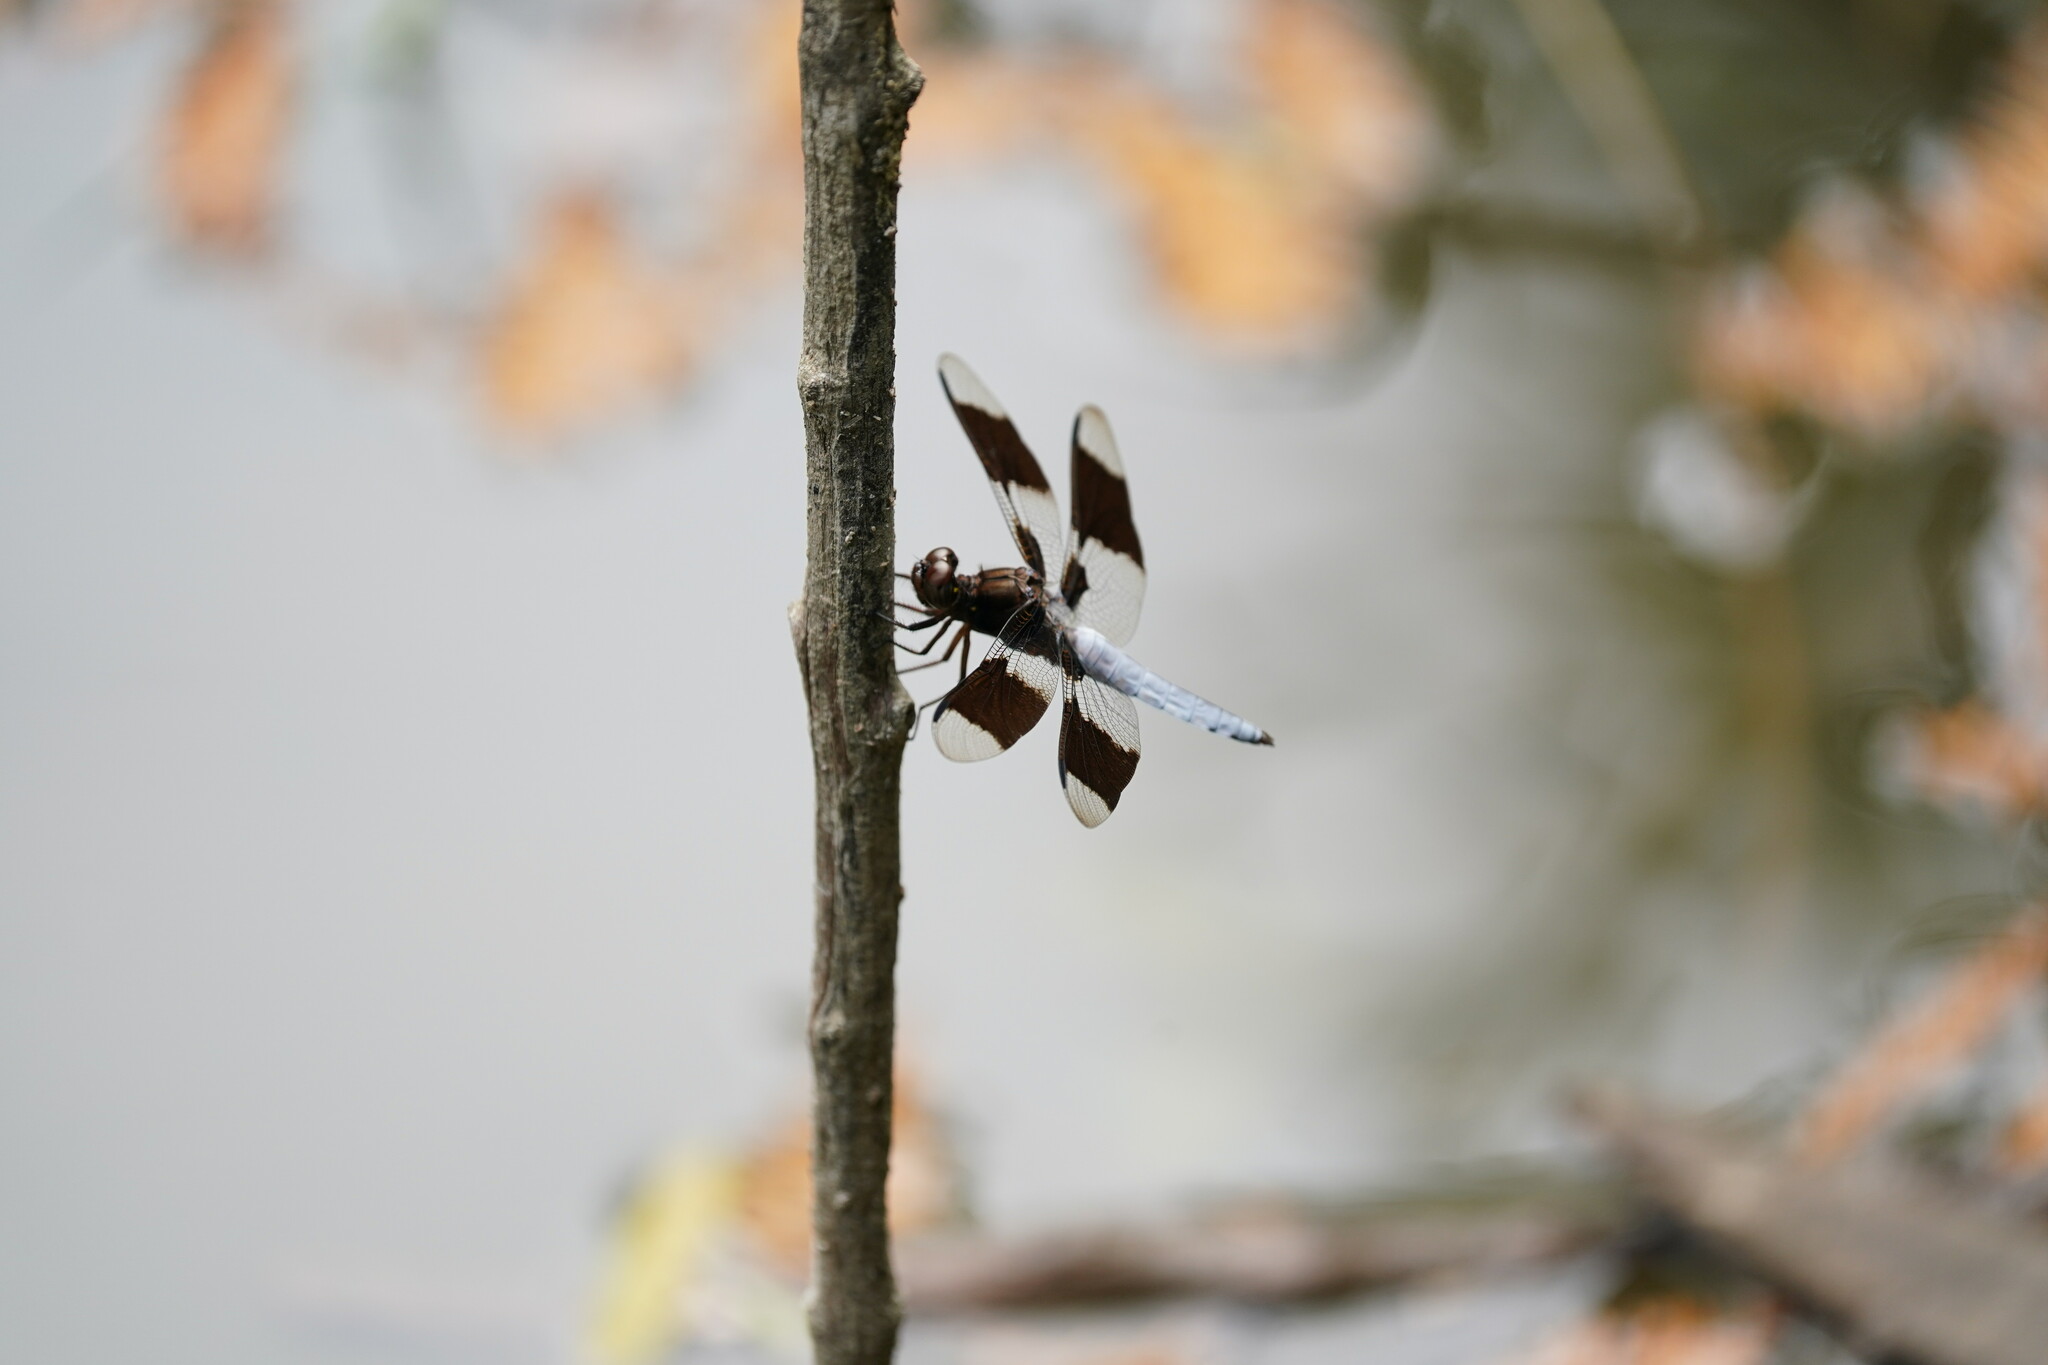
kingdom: Animalia
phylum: Arthropoda
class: Insecta
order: Odonata
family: Libellulidae
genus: Plathemis
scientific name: Plathemis lydia
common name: Common whitetail
